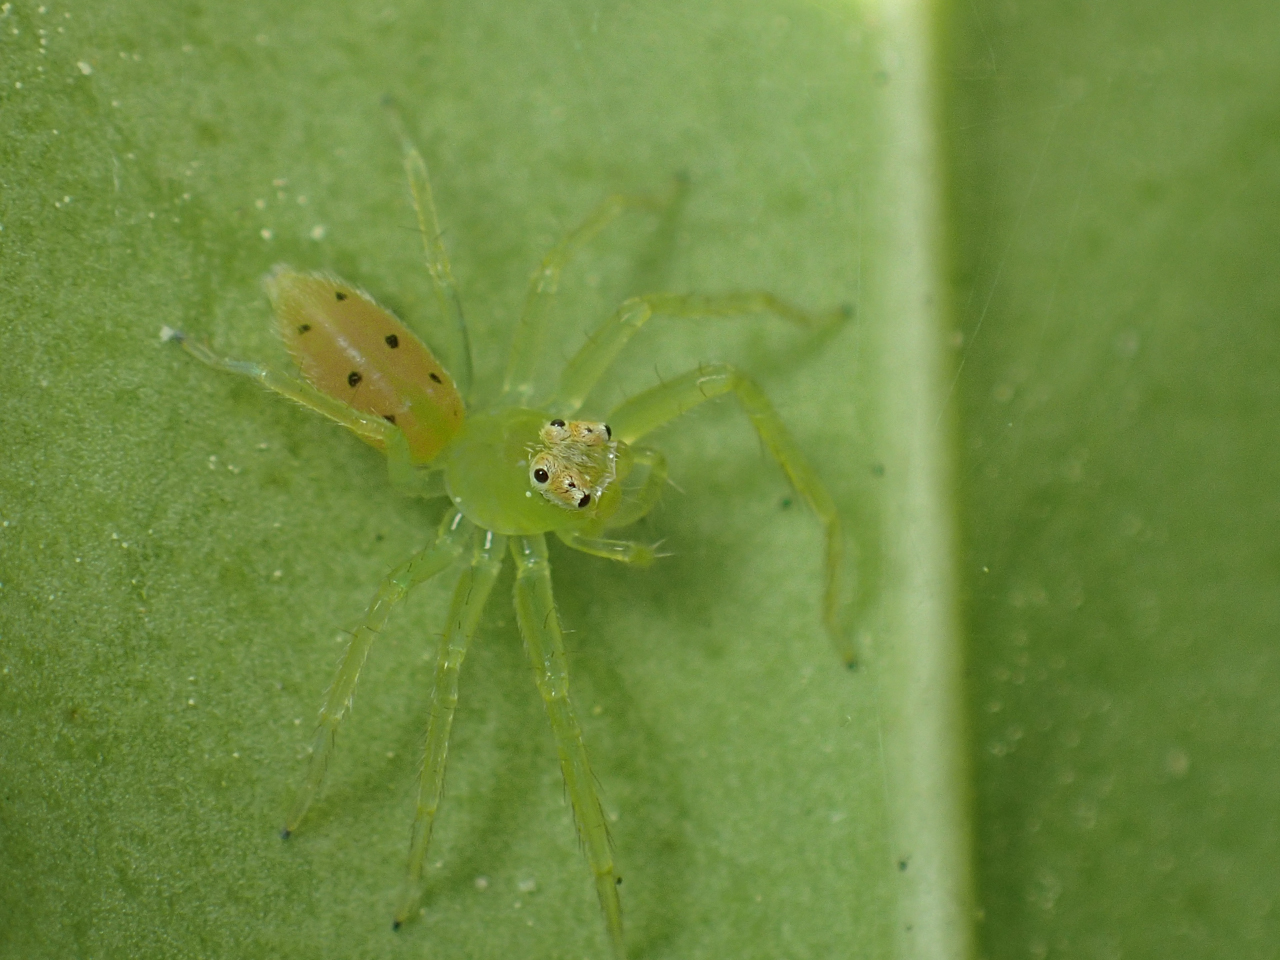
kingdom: Animalia
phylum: Arthropoda
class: Arachnida
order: Araneae
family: Salticidae
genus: Lyssomanes
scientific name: Lyssomanes viridis
